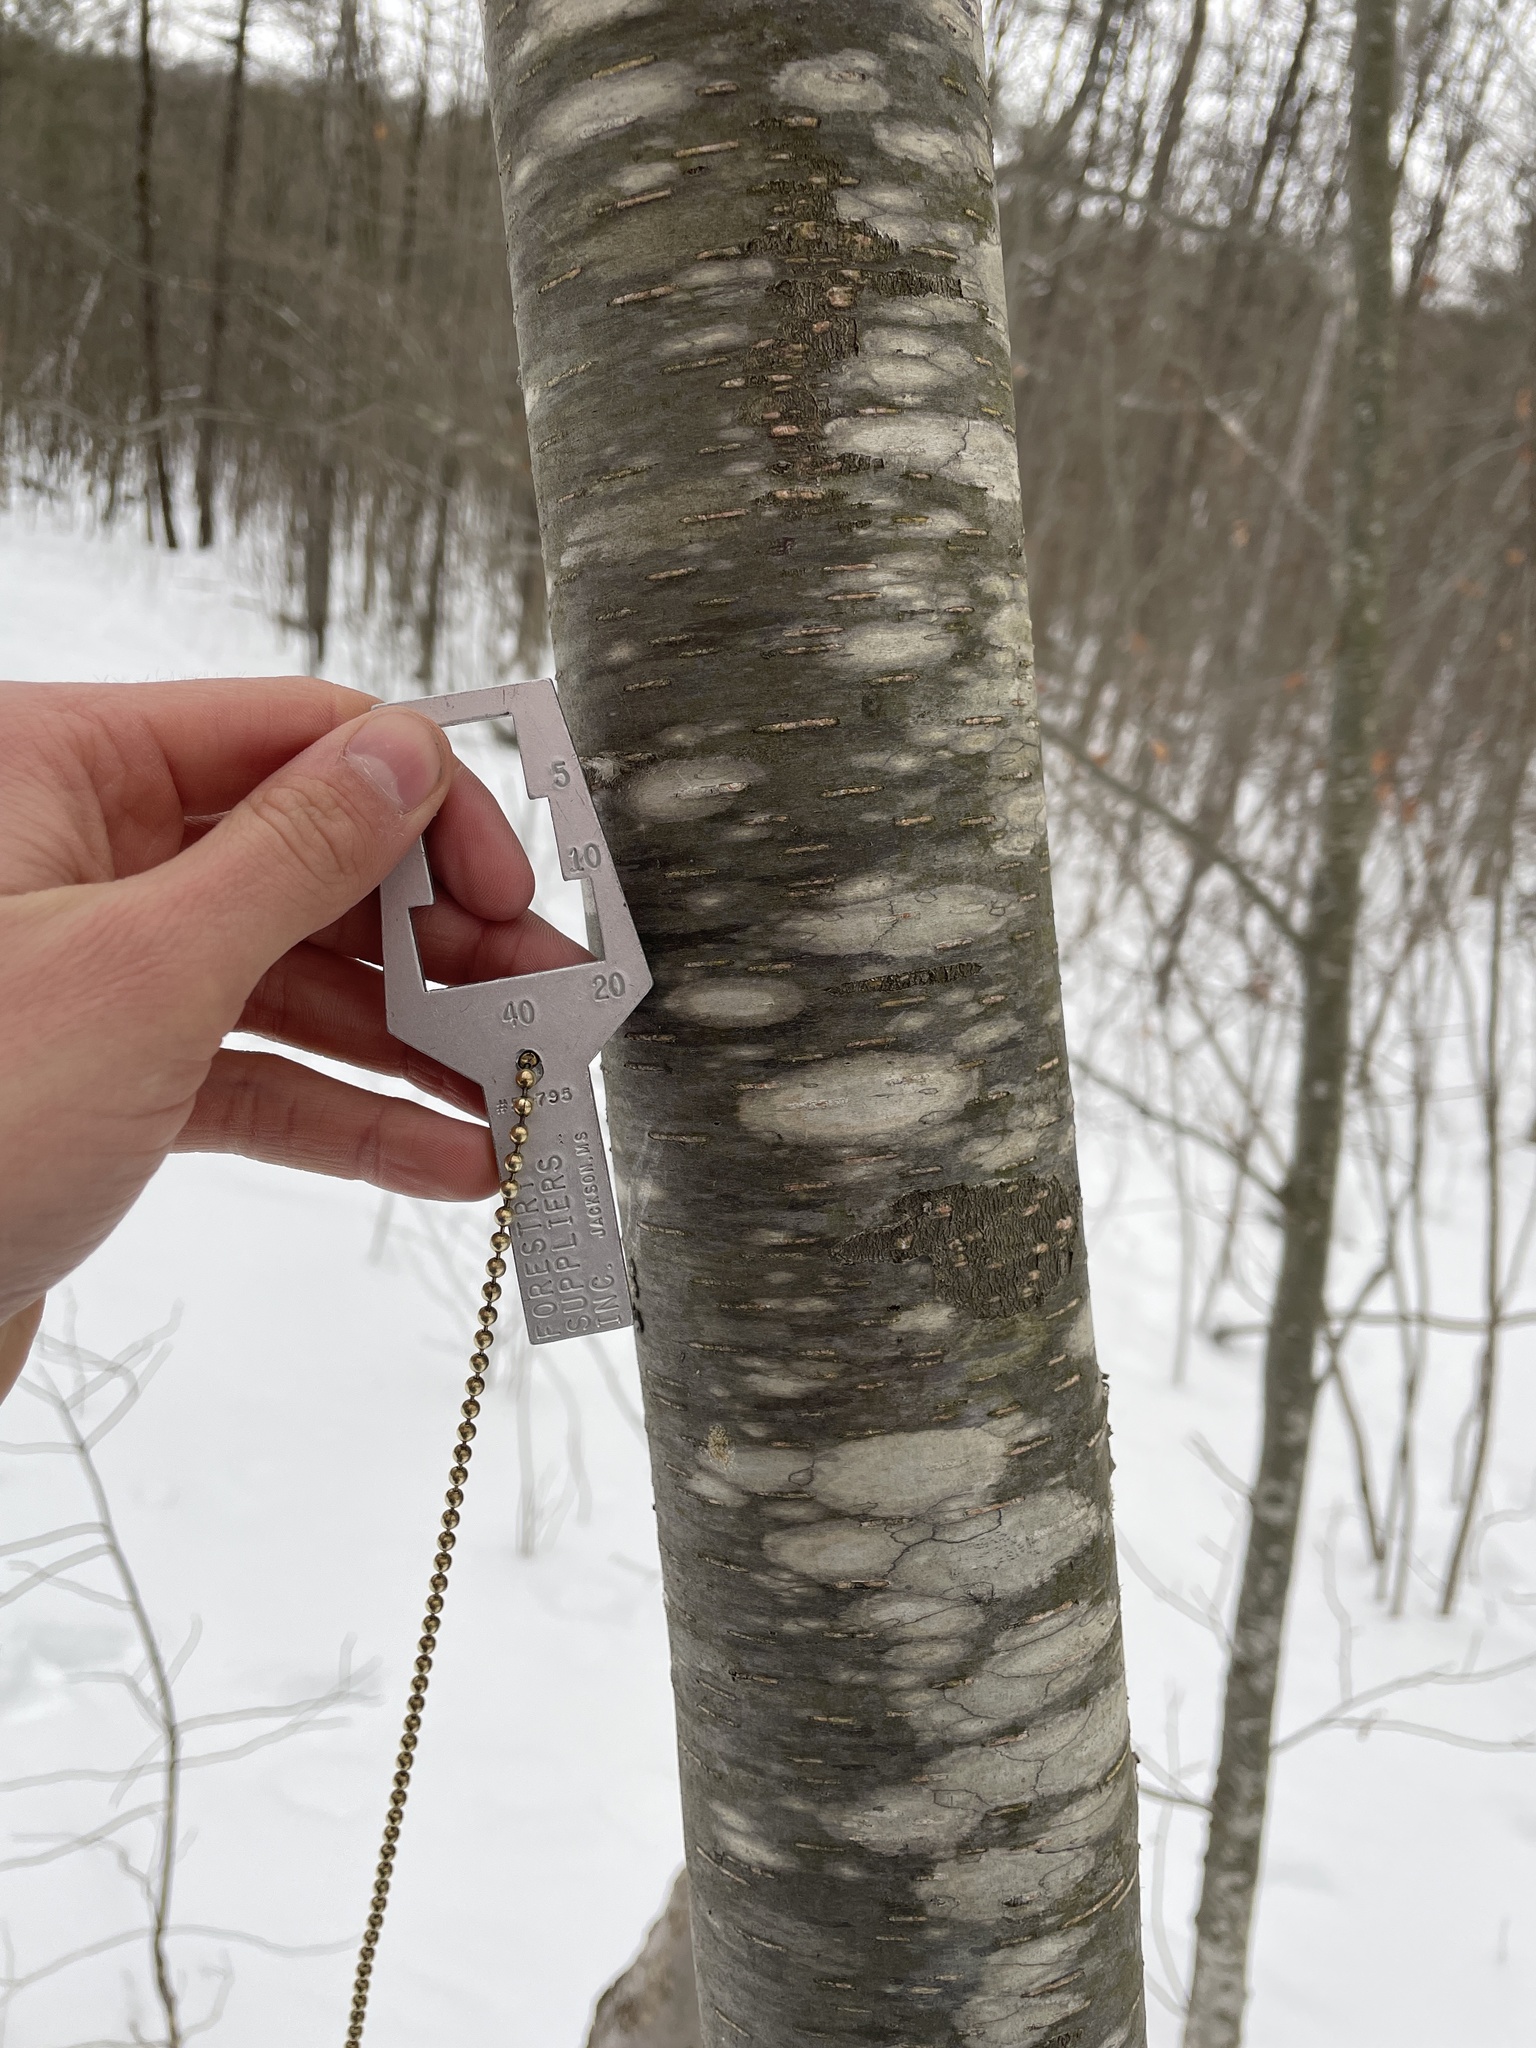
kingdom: Plantae
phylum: Tracheophyta
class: Magnoliopsida
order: Fagales
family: Betulaceae
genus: Betula
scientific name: Betula lenta
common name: Black birch
